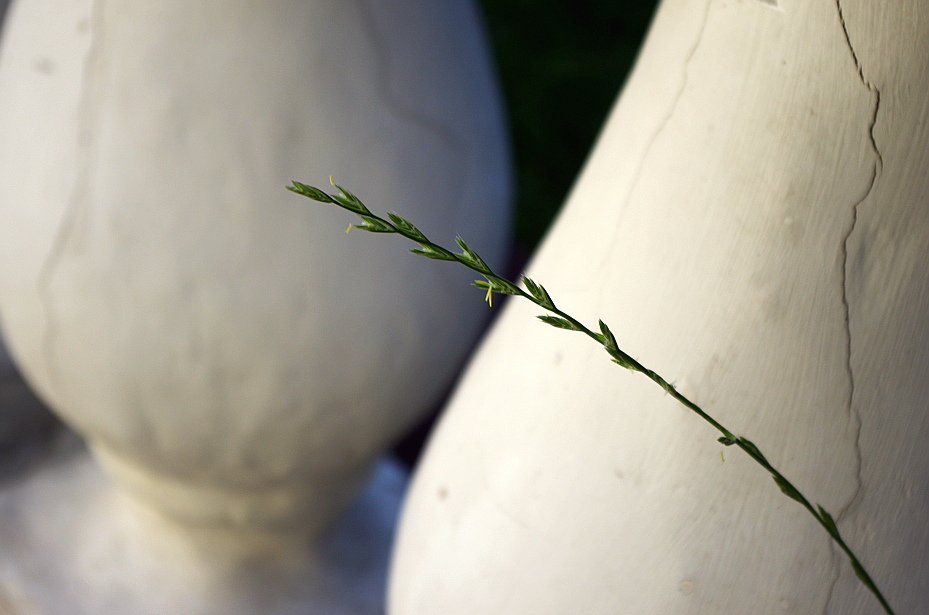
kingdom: Plantae
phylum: Tracheophyta
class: Liliopsida
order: Poales
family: Poaceae
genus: Lolium
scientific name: Lolium perenne
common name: Perennial ryegrass
